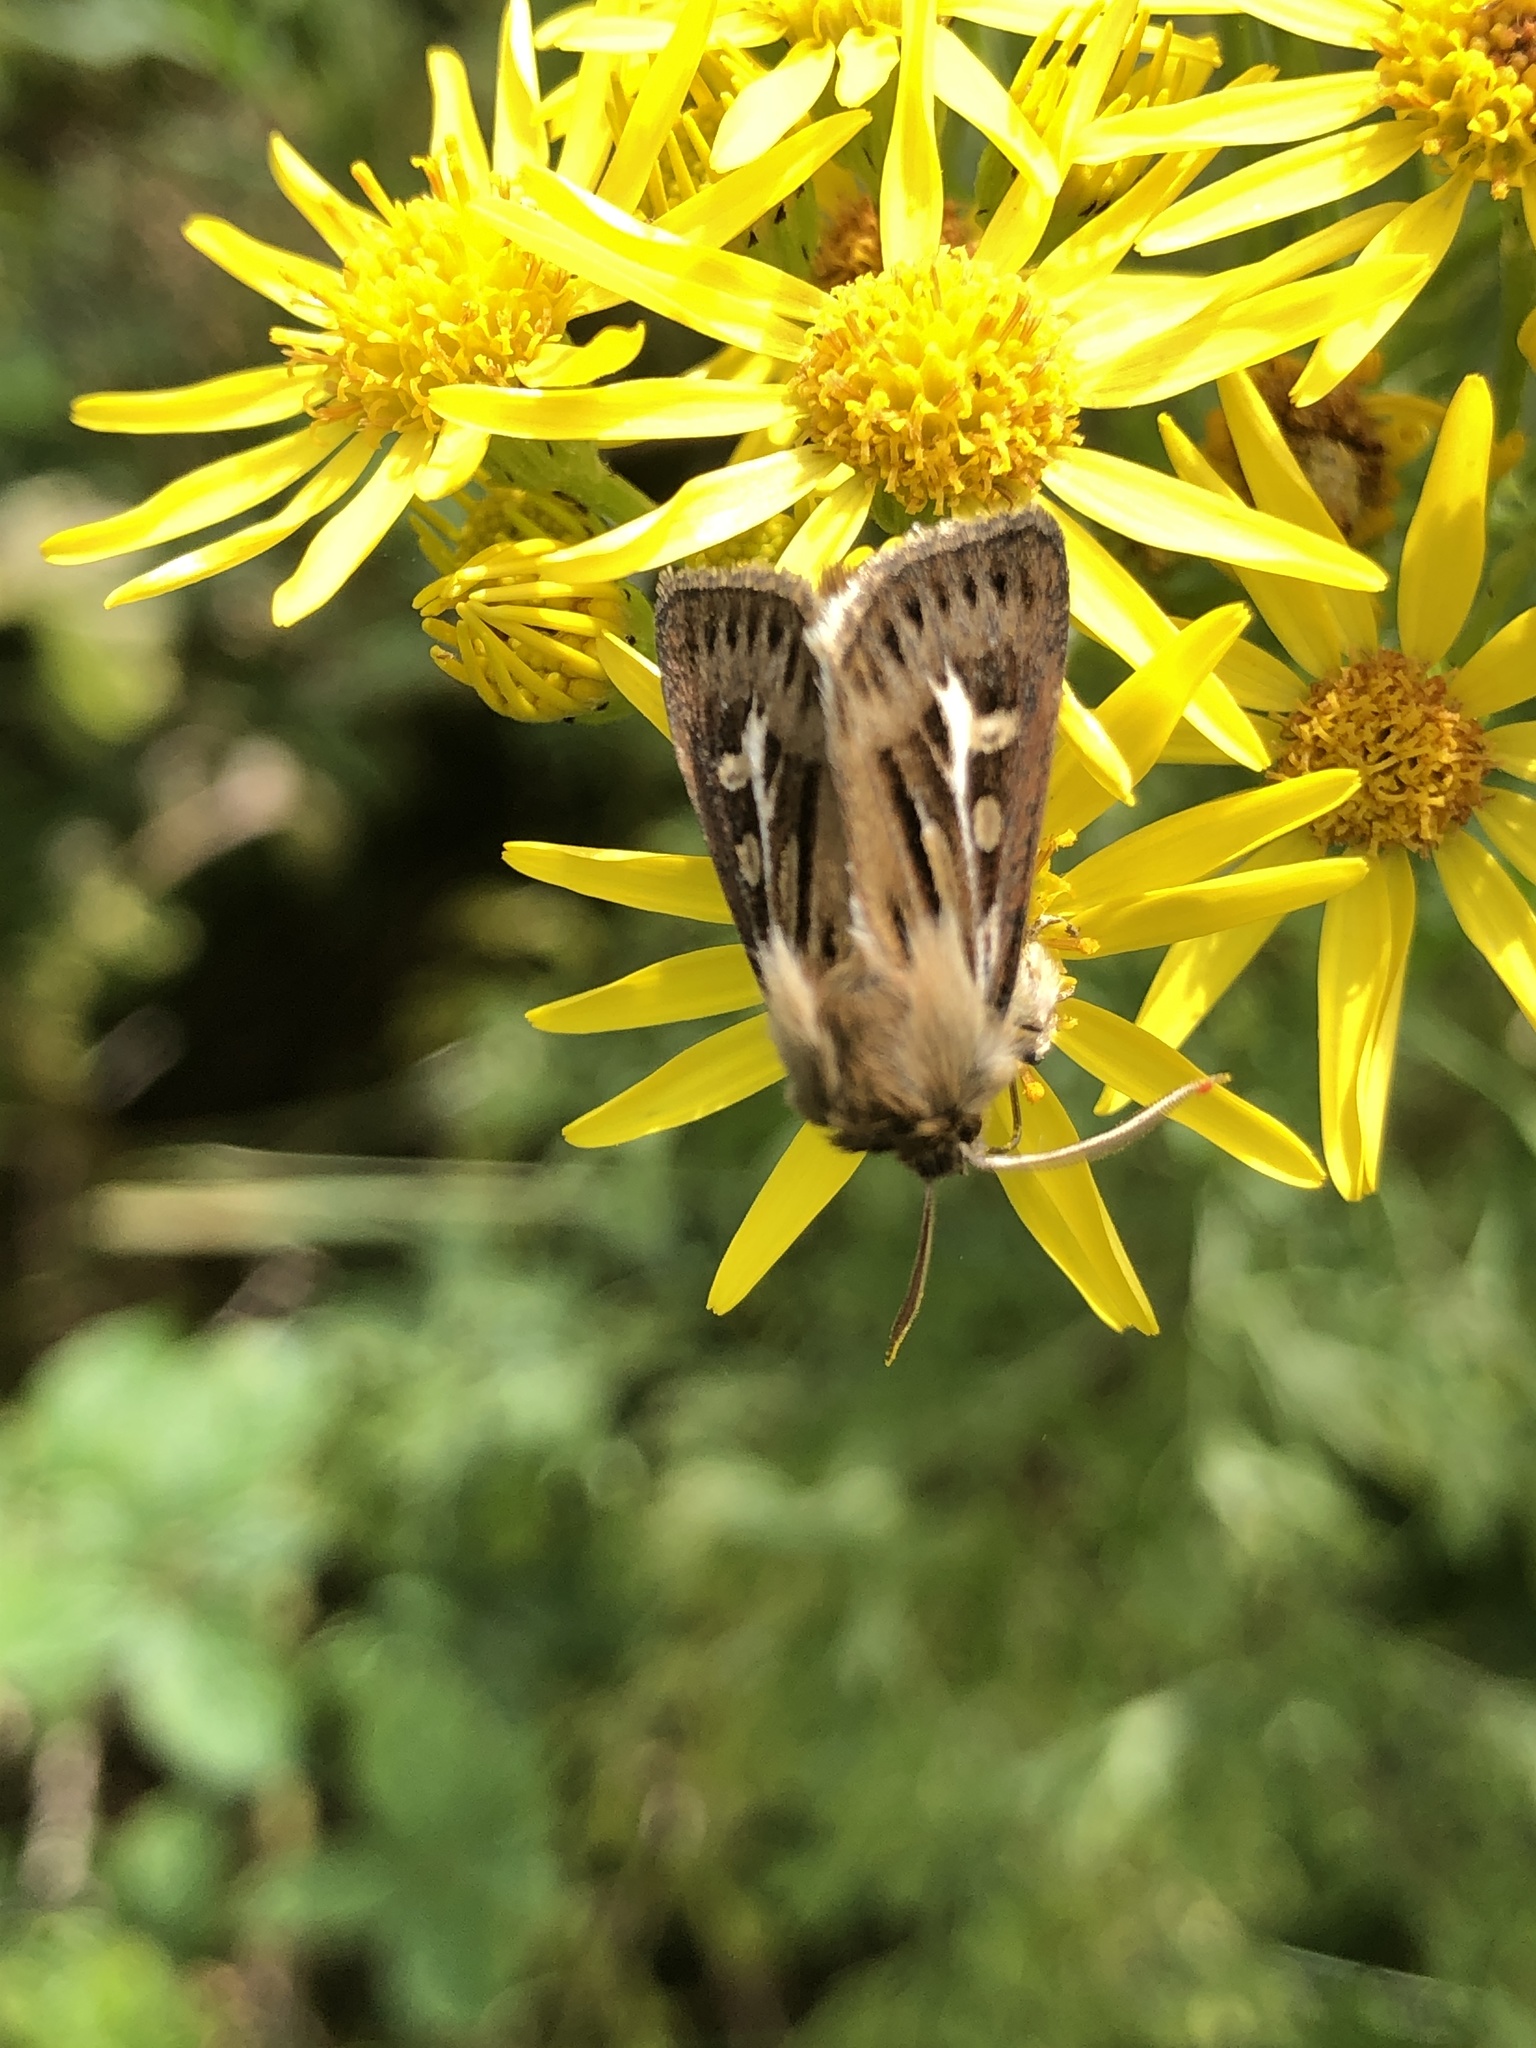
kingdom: Animalia
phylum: Arthropoda
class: Insecta
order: Lepidoptera
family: Noctuidae
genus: Cerapteryx
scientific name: Cerapteryx graminis
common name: Antler moth
